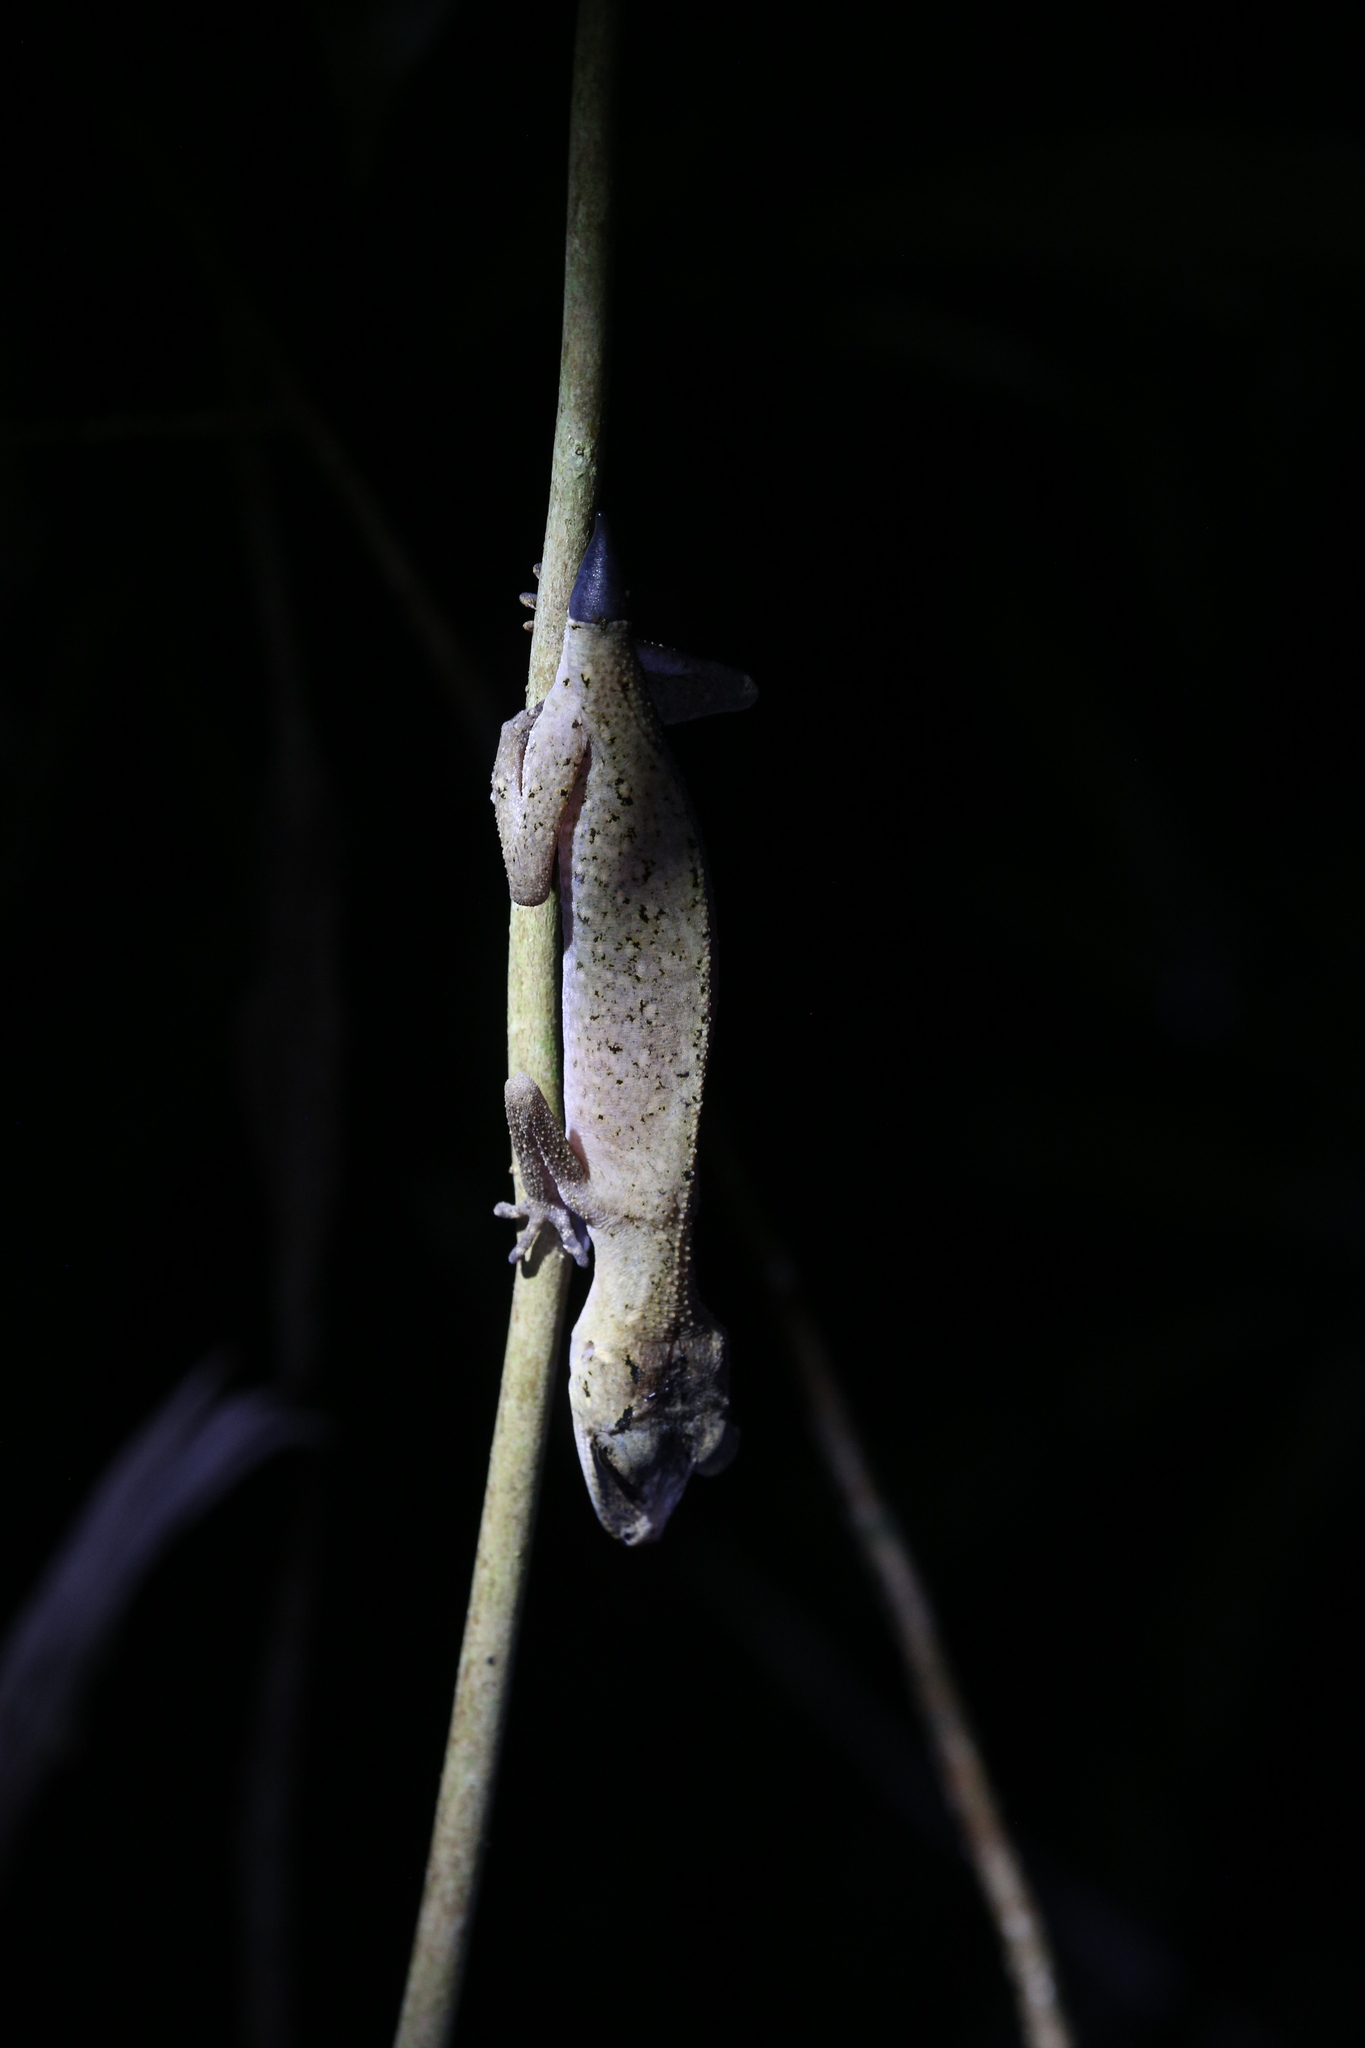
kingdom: Animalia
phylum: Chordata
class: Squamata
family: Carphodactylidae
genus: Carphodactylus
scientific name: Carphodactylus laevis
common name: Chameleon gecko
